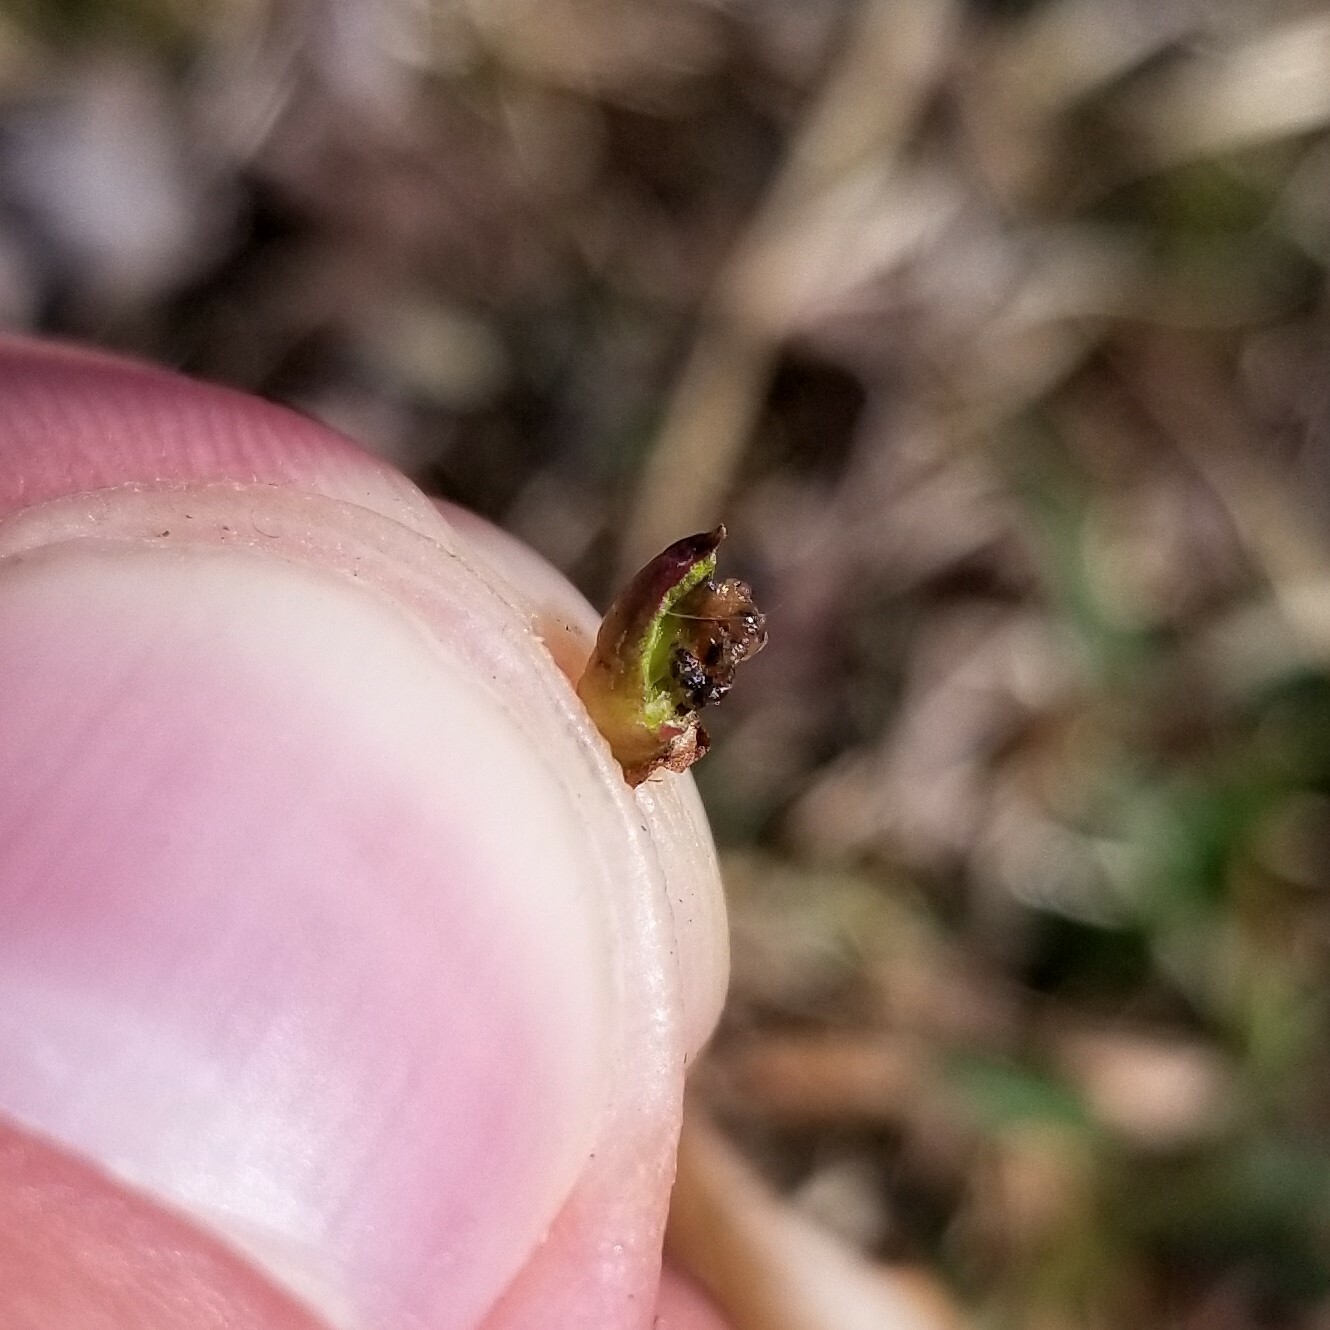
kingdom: Animalia
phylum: Arthropoda
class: Insecta
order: Diptera
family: Cecidomyiidae
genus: Rhopalomyia
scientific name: Rhopalomyia bulbula
